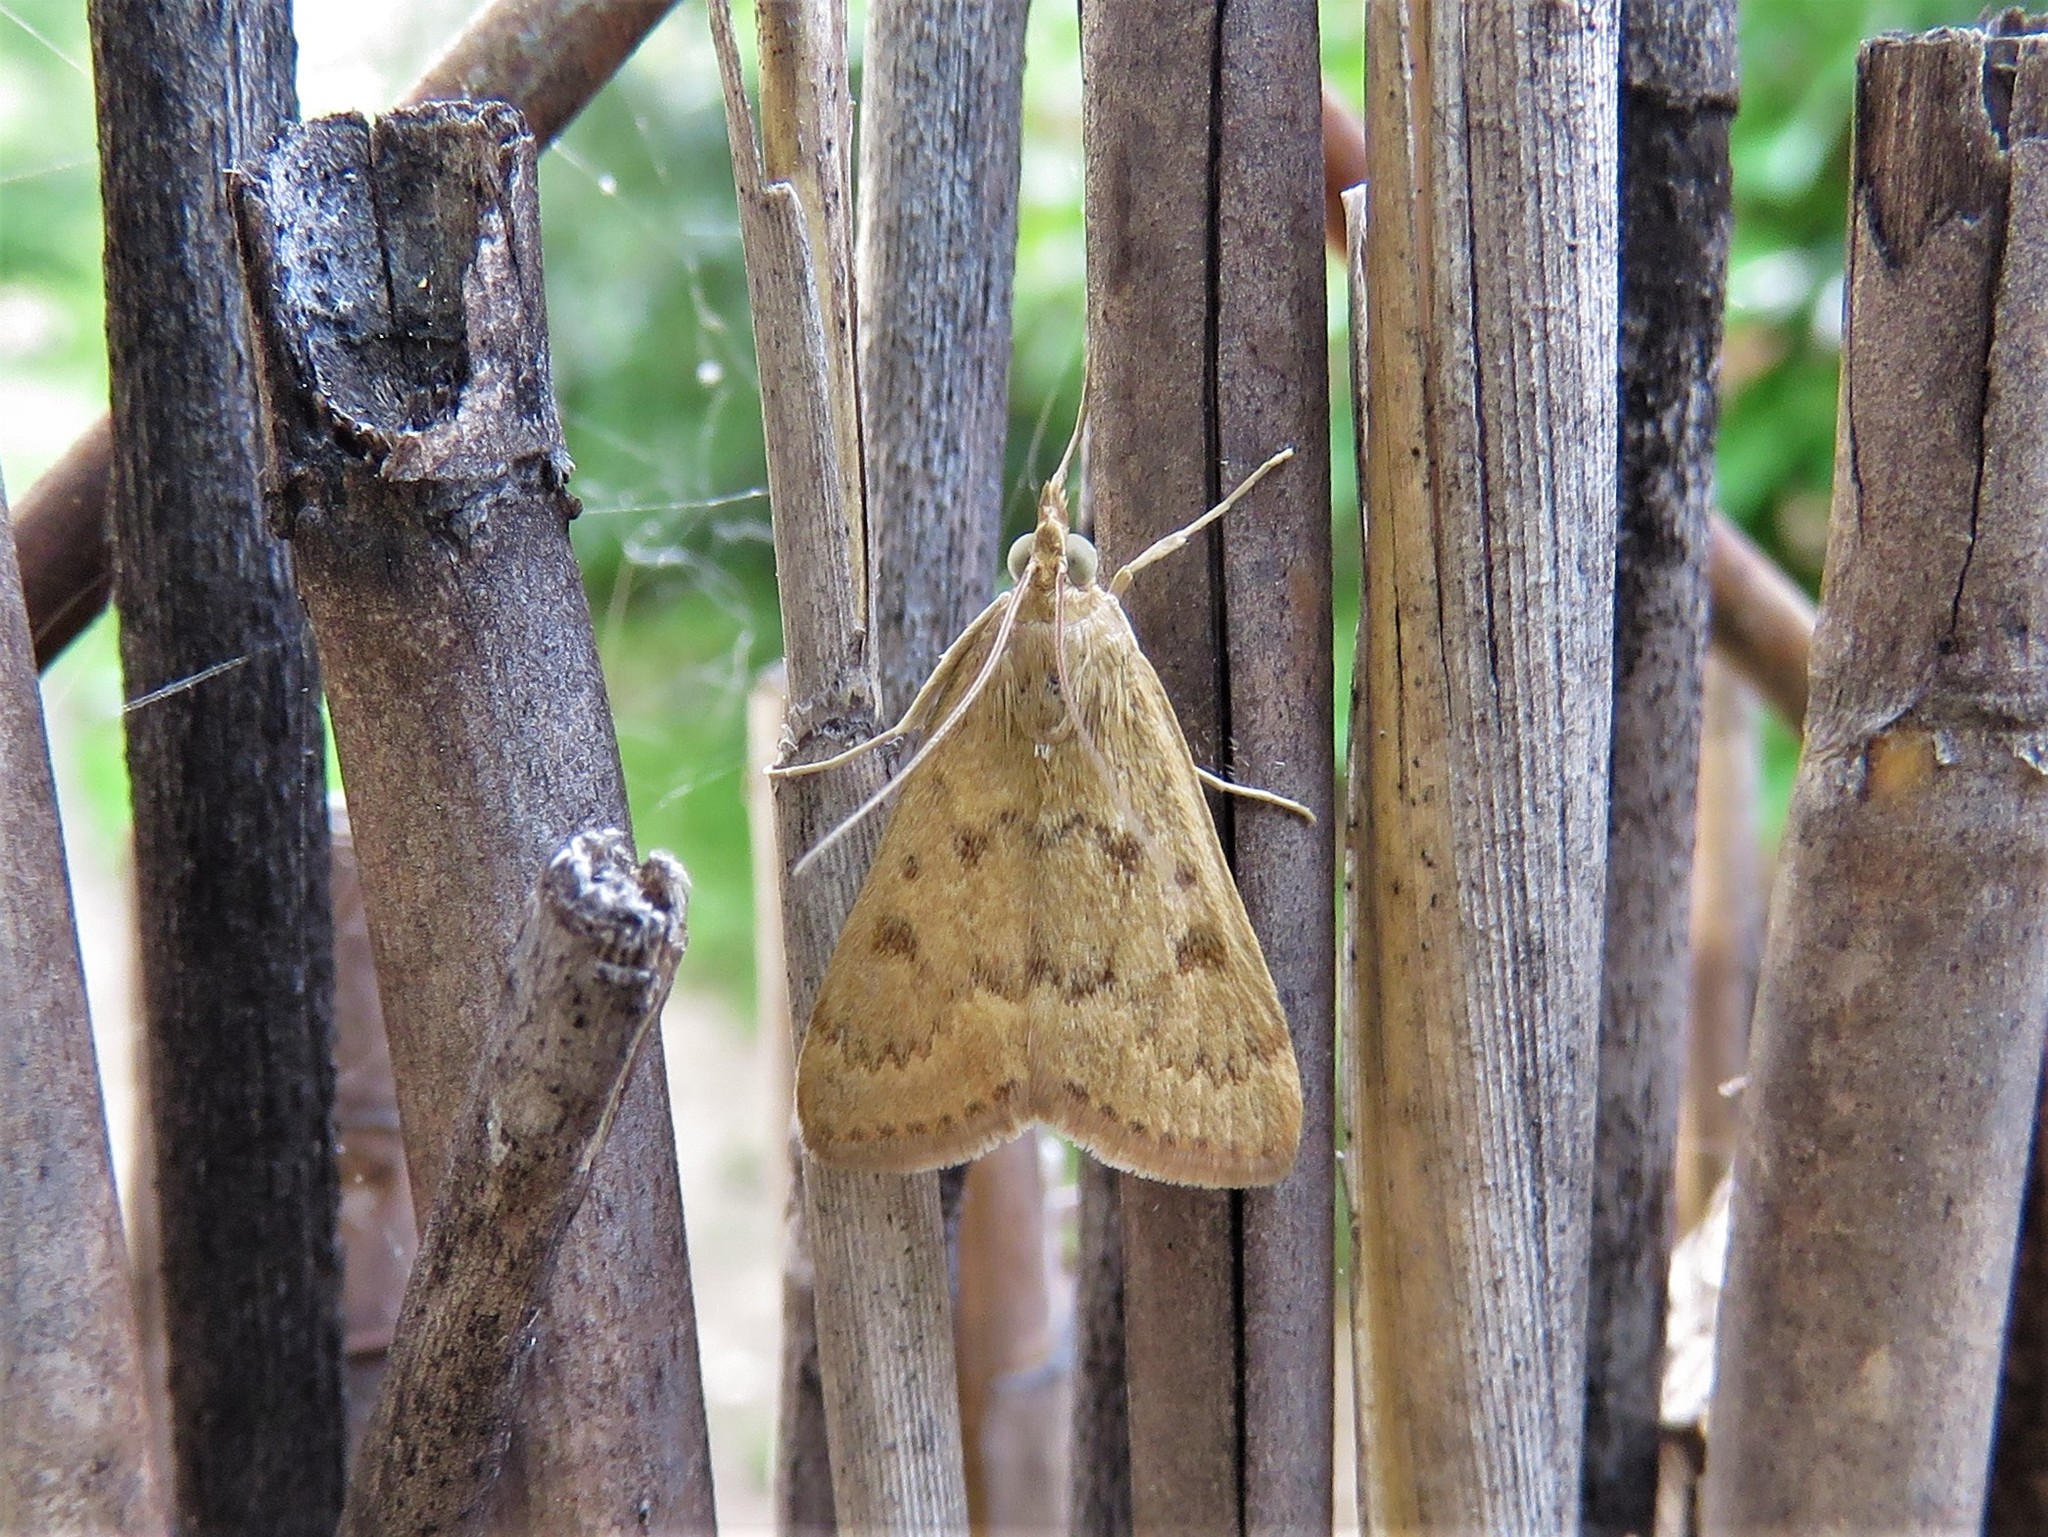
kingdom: Animalia
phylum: Arthropoda
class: Insecta
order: Lepidoptera
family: Crambidae
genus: Achyra
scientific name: Achyra rantalis
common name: Garden webworm
